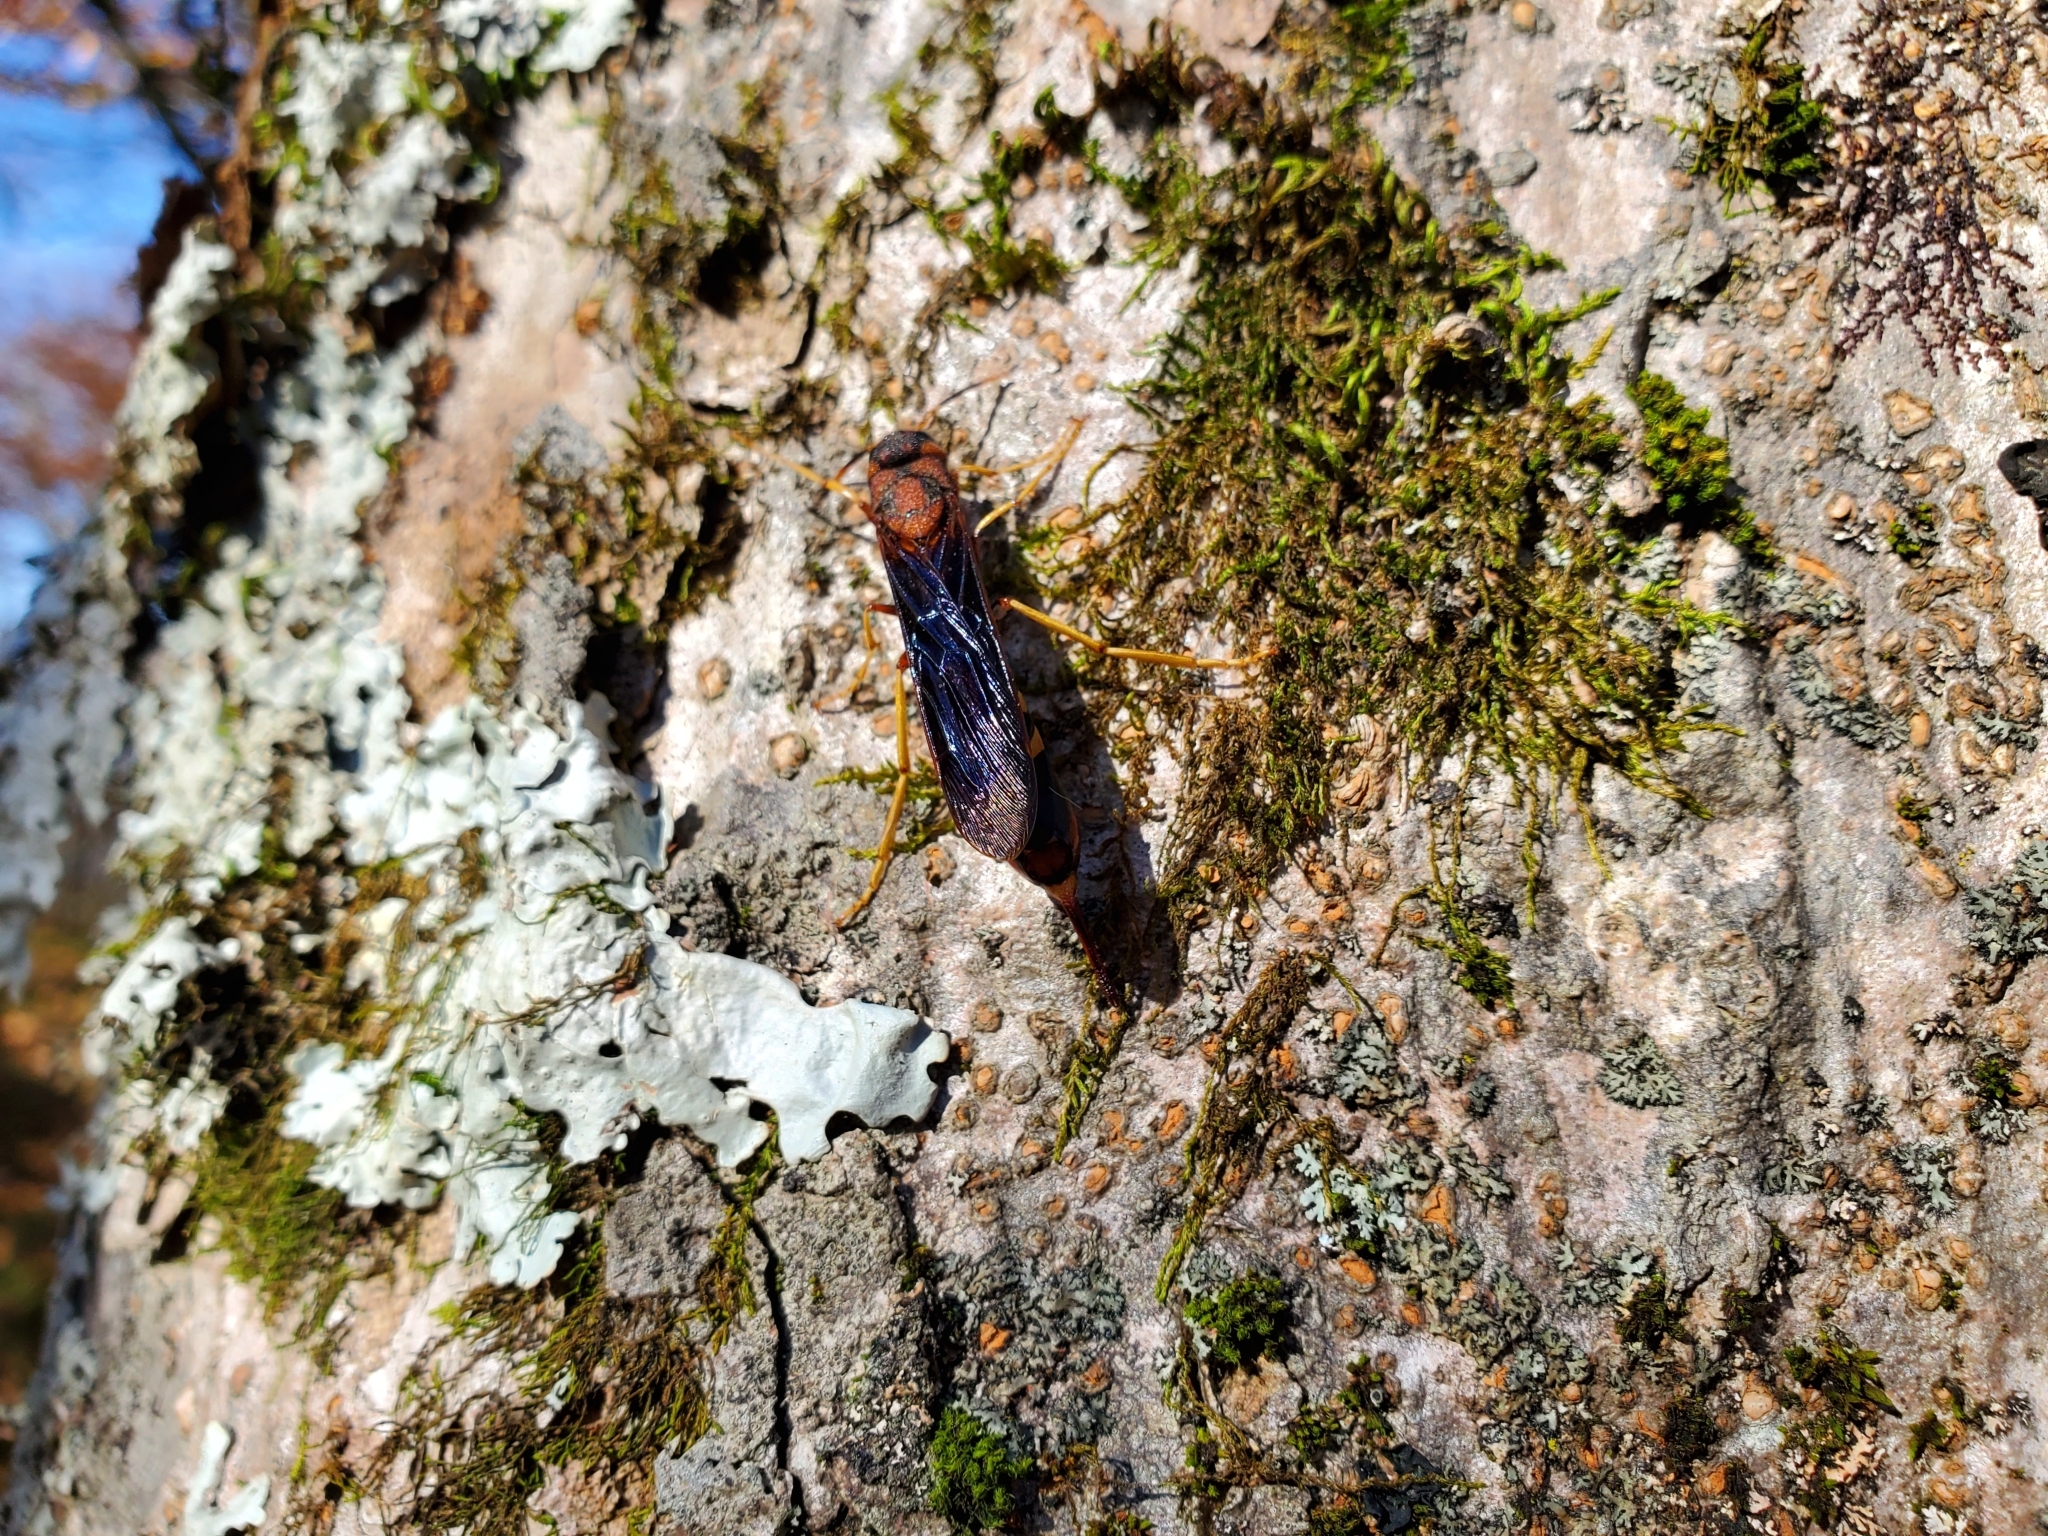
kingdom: Animalia
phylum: Arthropoda
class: Insecta
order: Hymenoptera
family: Siricidae
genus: Tremex
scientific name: Tremex columba
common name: Wasp
